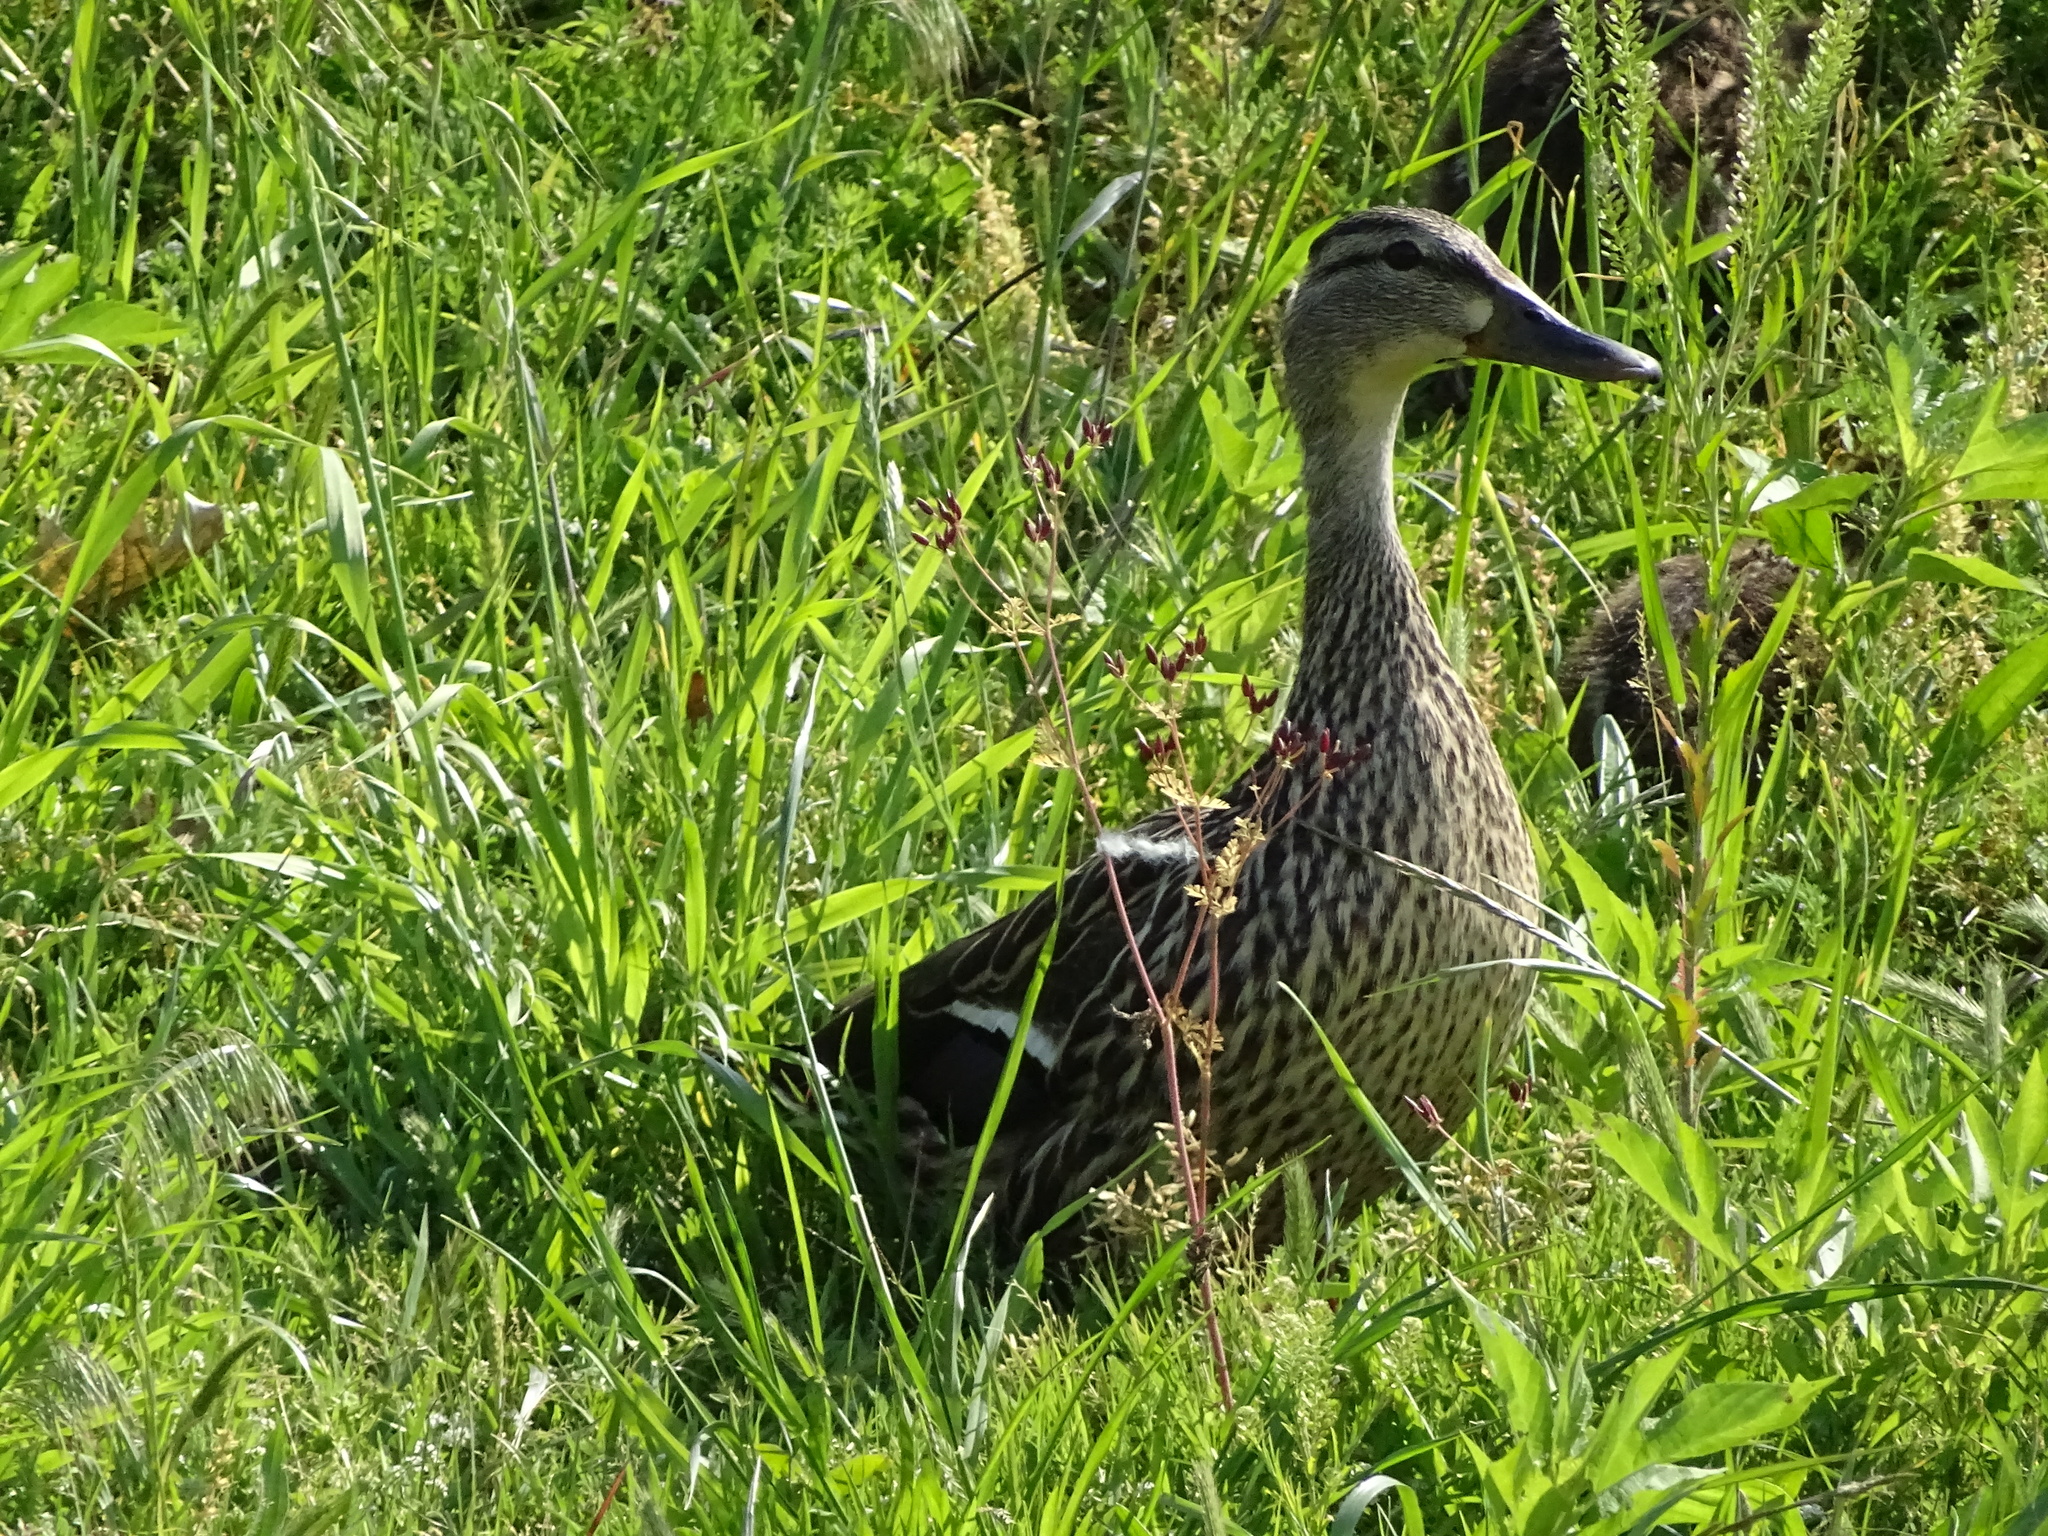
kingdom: Animalia
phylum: Chordata
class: Aves
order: Anseriformes
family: Anatidae
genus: Anas
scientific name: Anas platyrhynchos
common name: Mallard
